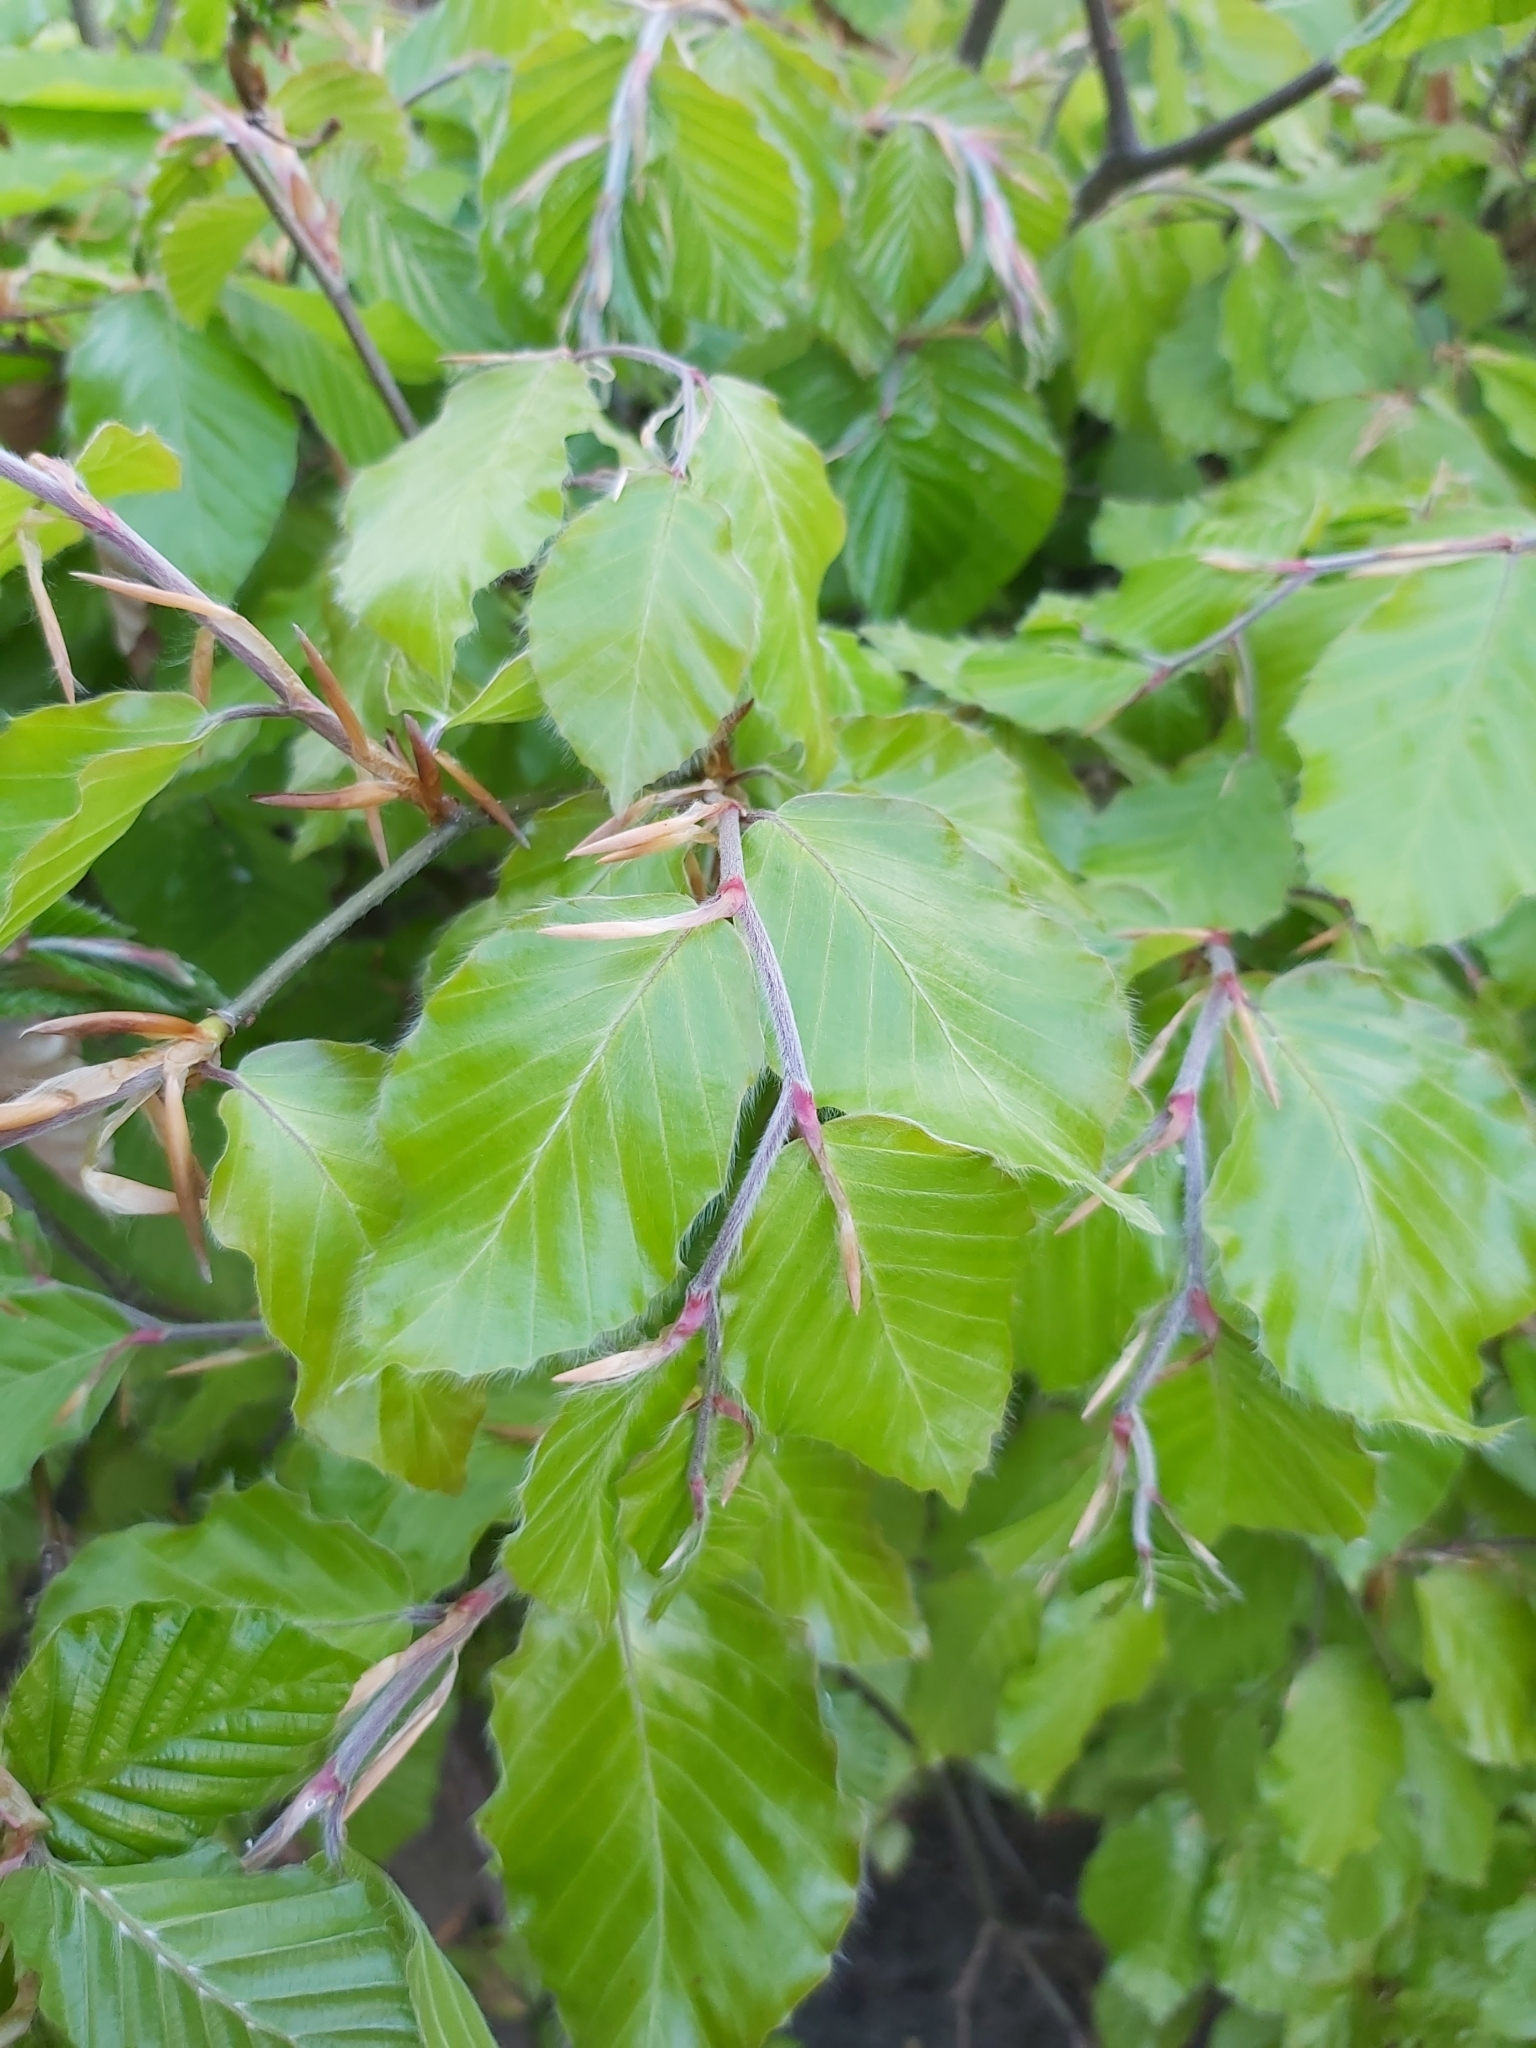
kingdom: Plantae
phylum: Tracheophyta
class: Magnoliopsida
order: Fagales
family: Fagaceae
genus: Fagus
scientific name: Fagus sylvatica
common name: Beech
